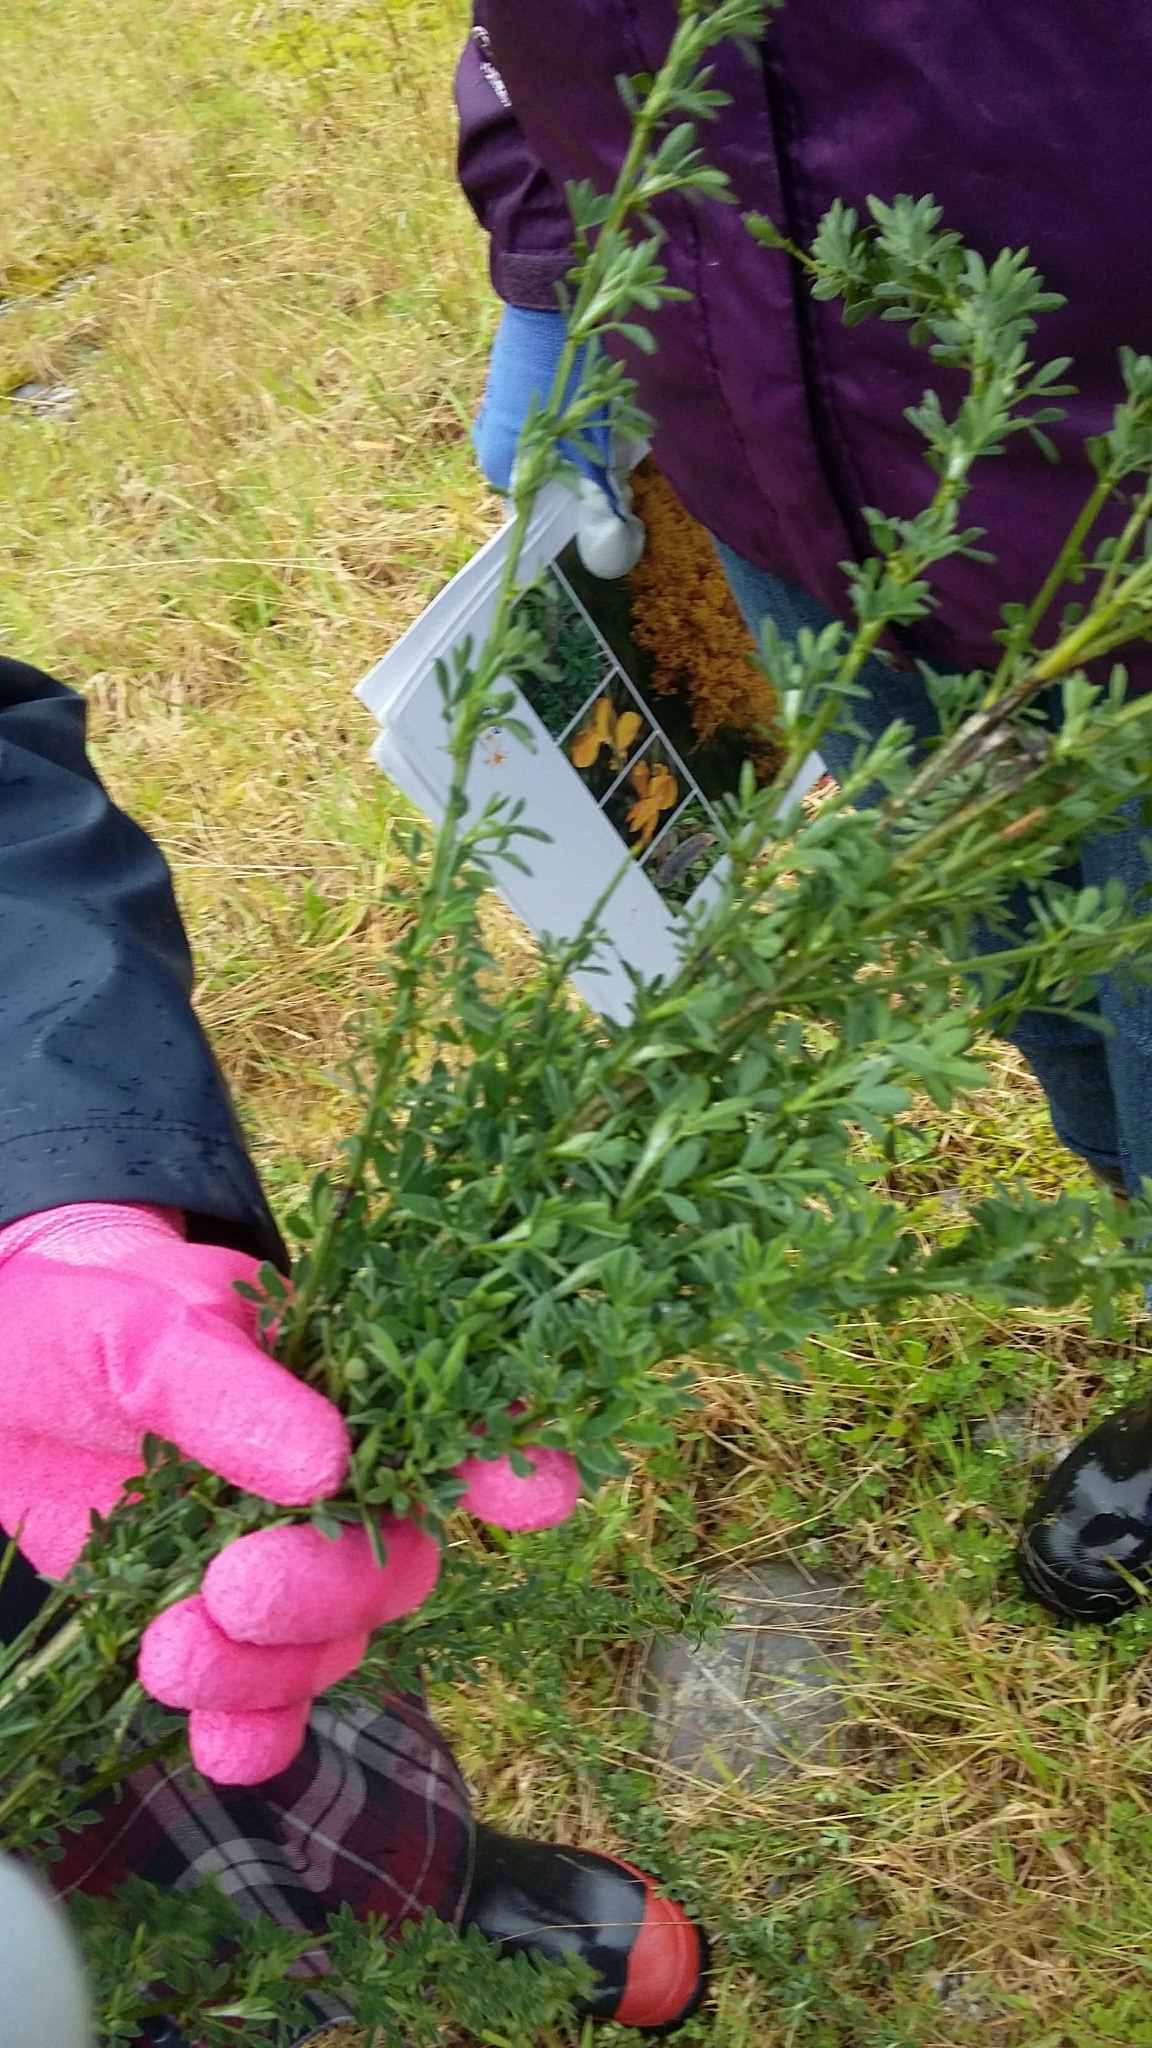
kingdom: Plantae
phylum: Tracheophyta
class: Magnoliopsida
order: Fabales
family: Fabaceae
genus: Cytisus
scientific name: Cytisus scoparius
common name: Scotch broom
